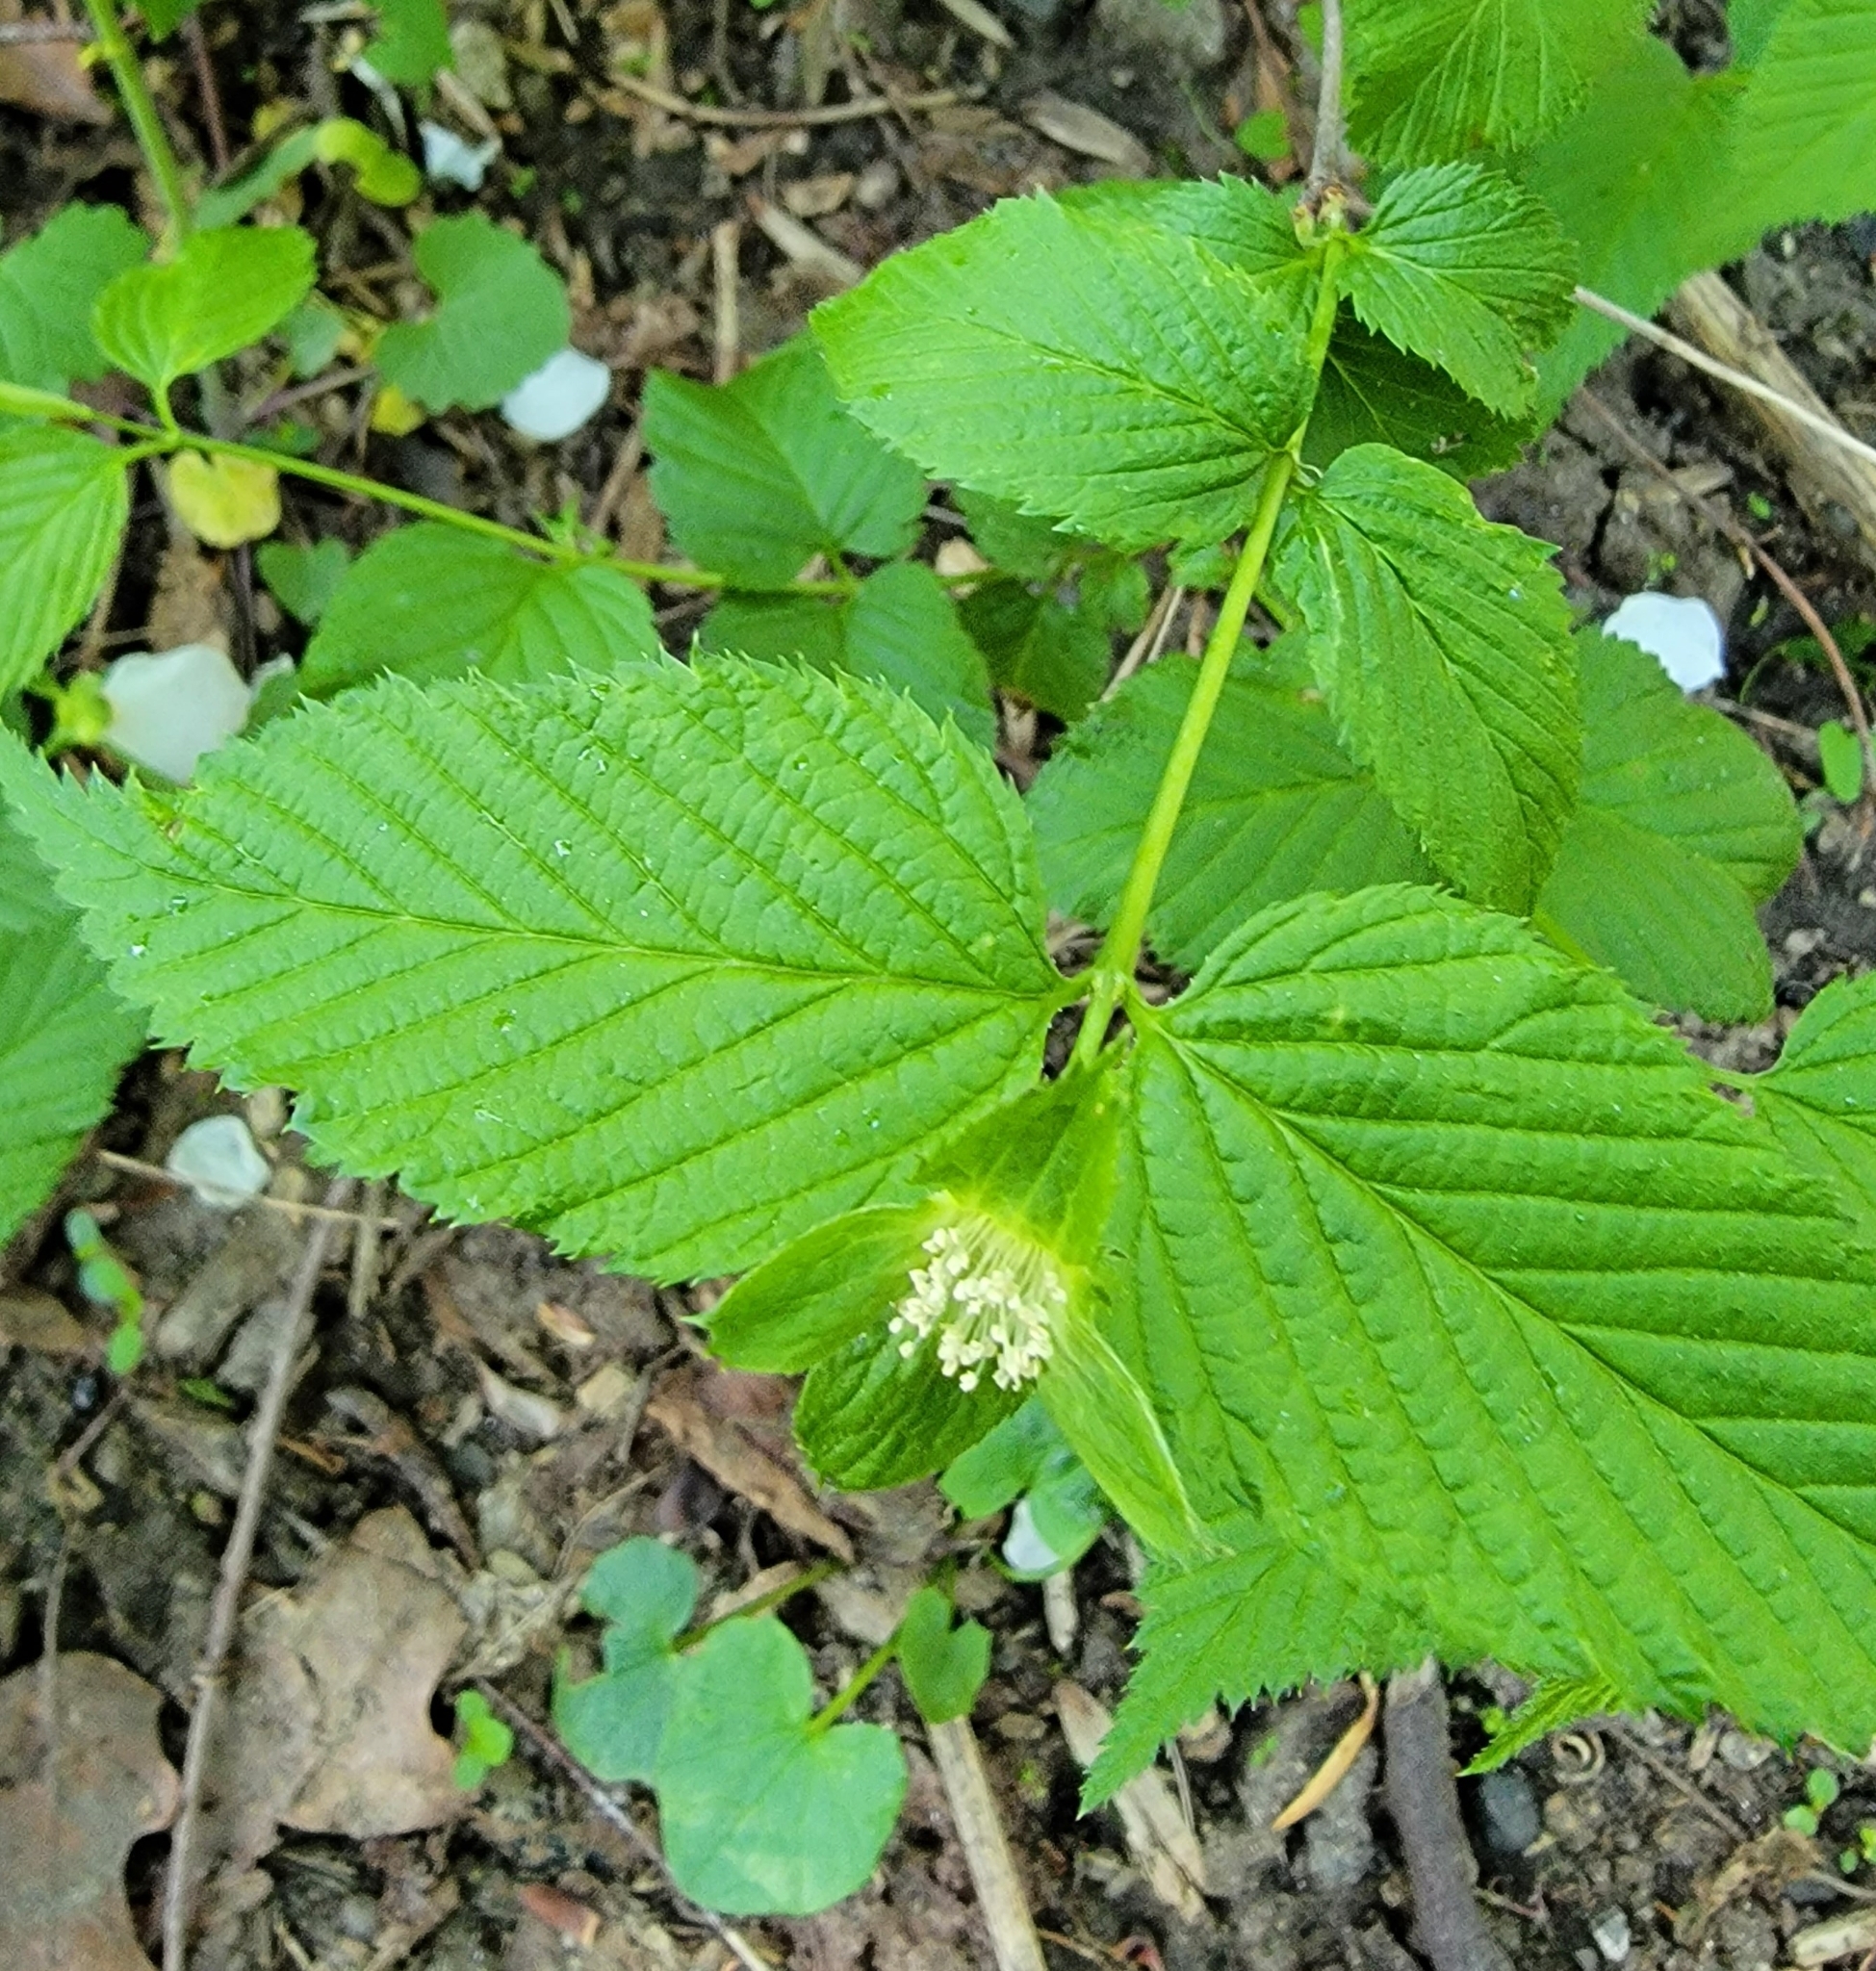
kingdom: Plantae
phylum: Tracheophyta
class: Magnoliopsida
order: Rosales
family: Rosaceae
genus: Rhodotypos
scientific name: Rhodotypos scandens
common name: Jetbead
